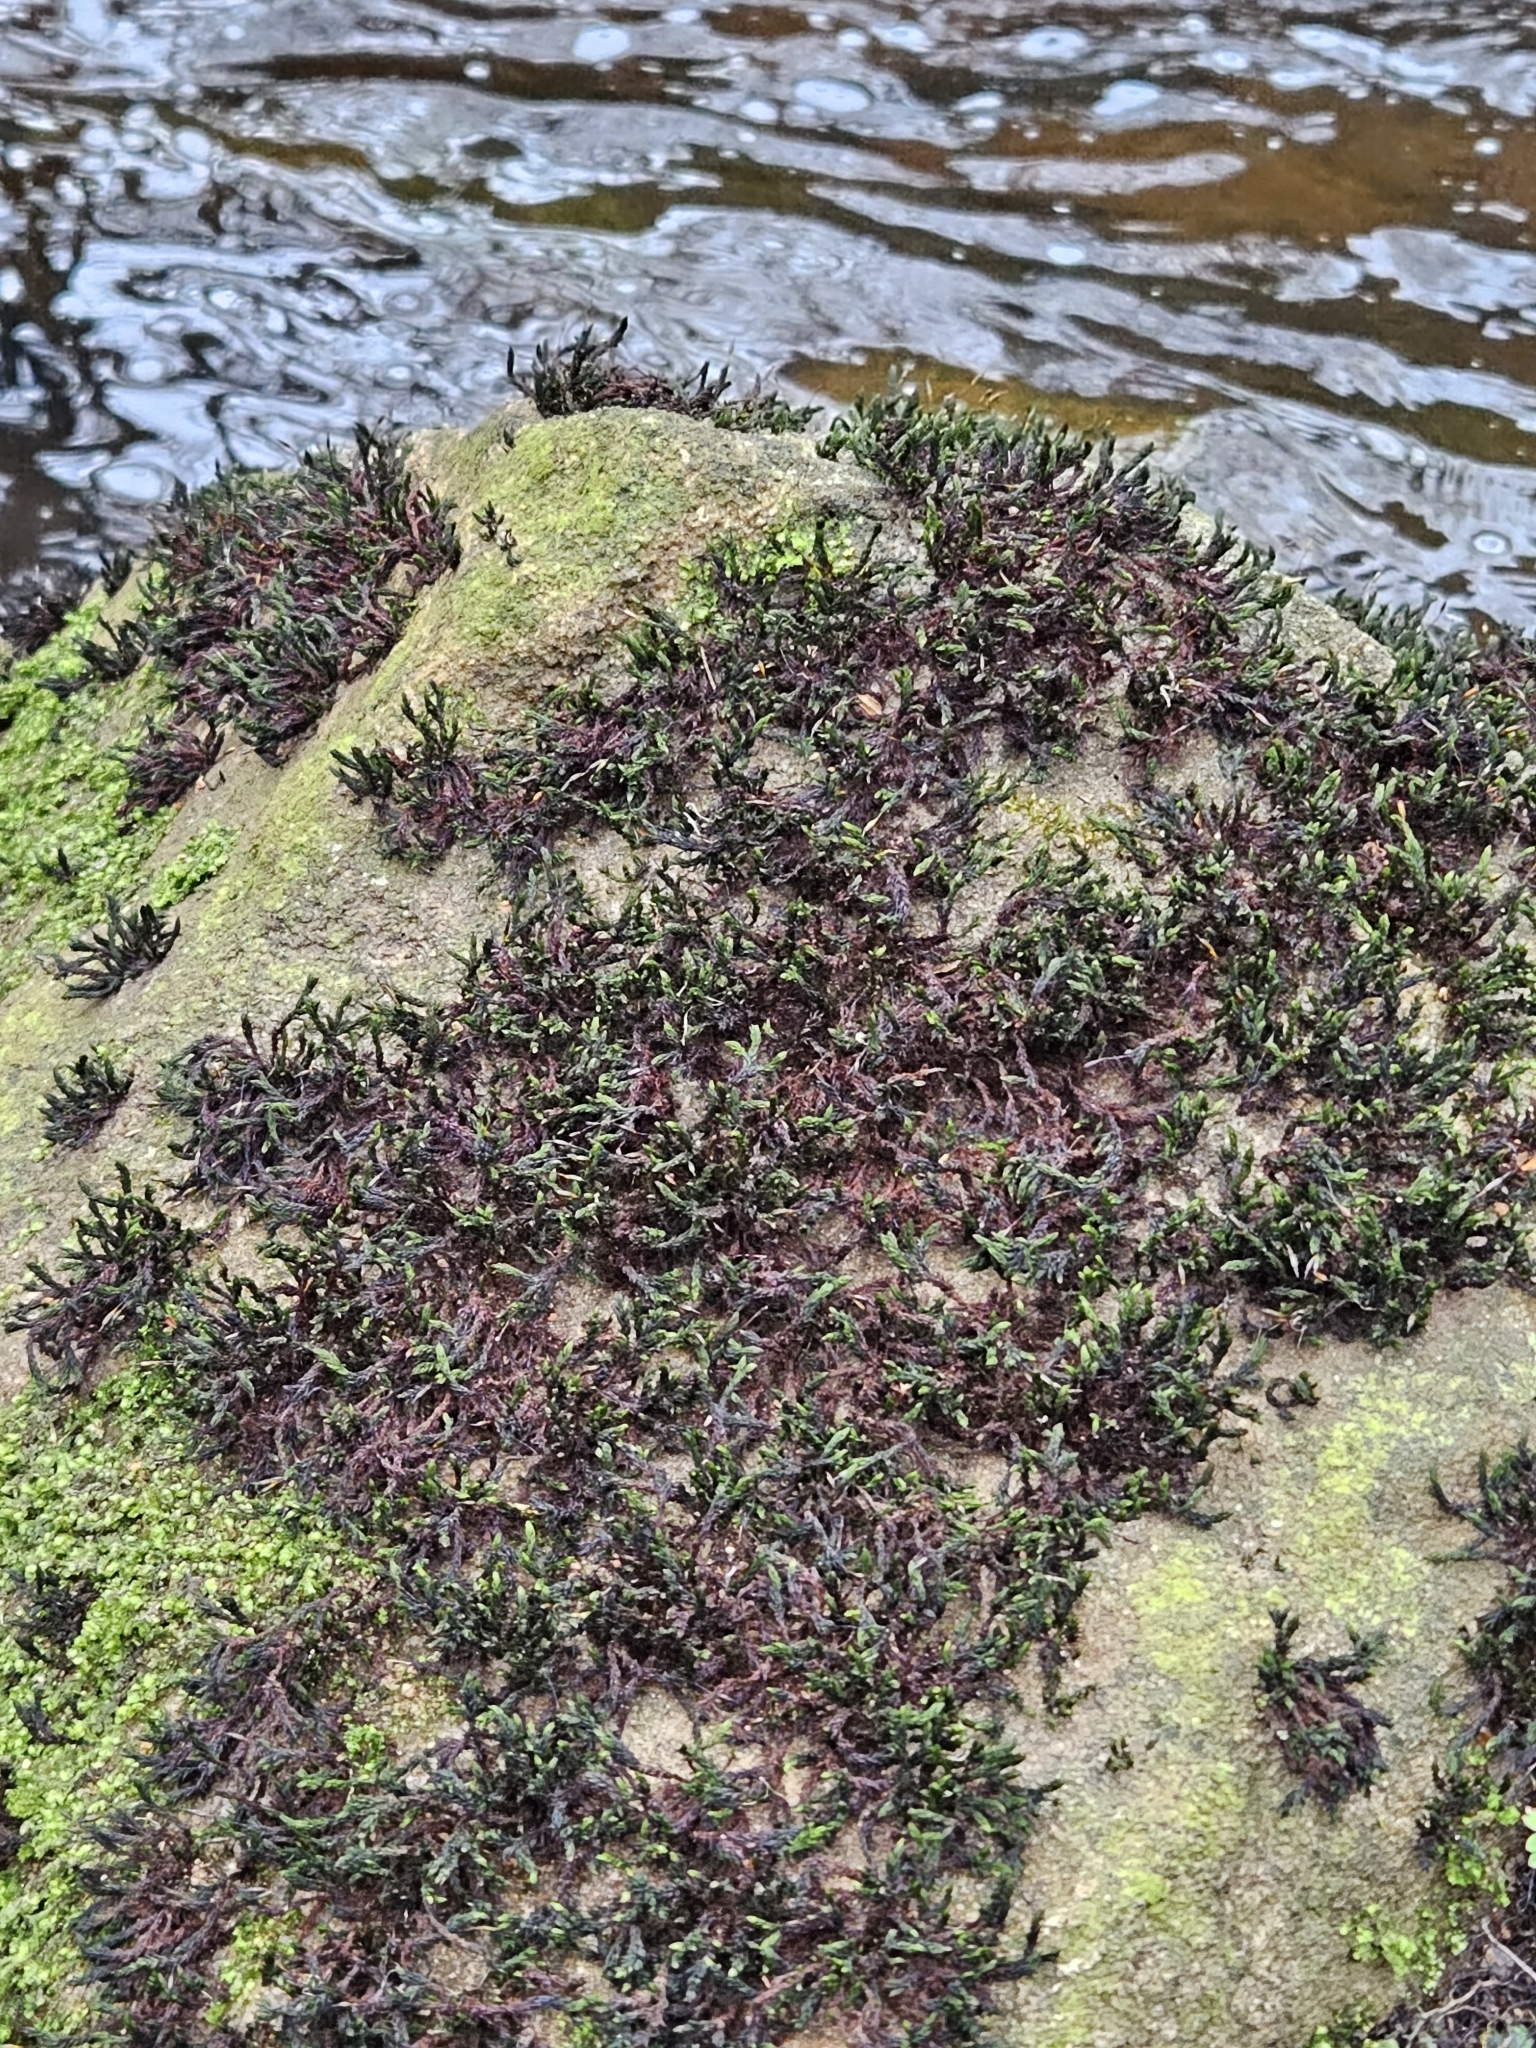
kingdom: Plantae
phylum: Bryophyta
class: Bryopsida
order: Grimmiales
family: Grimmiaceae
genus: Codriophorus
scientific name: Codriophorus acicularis
